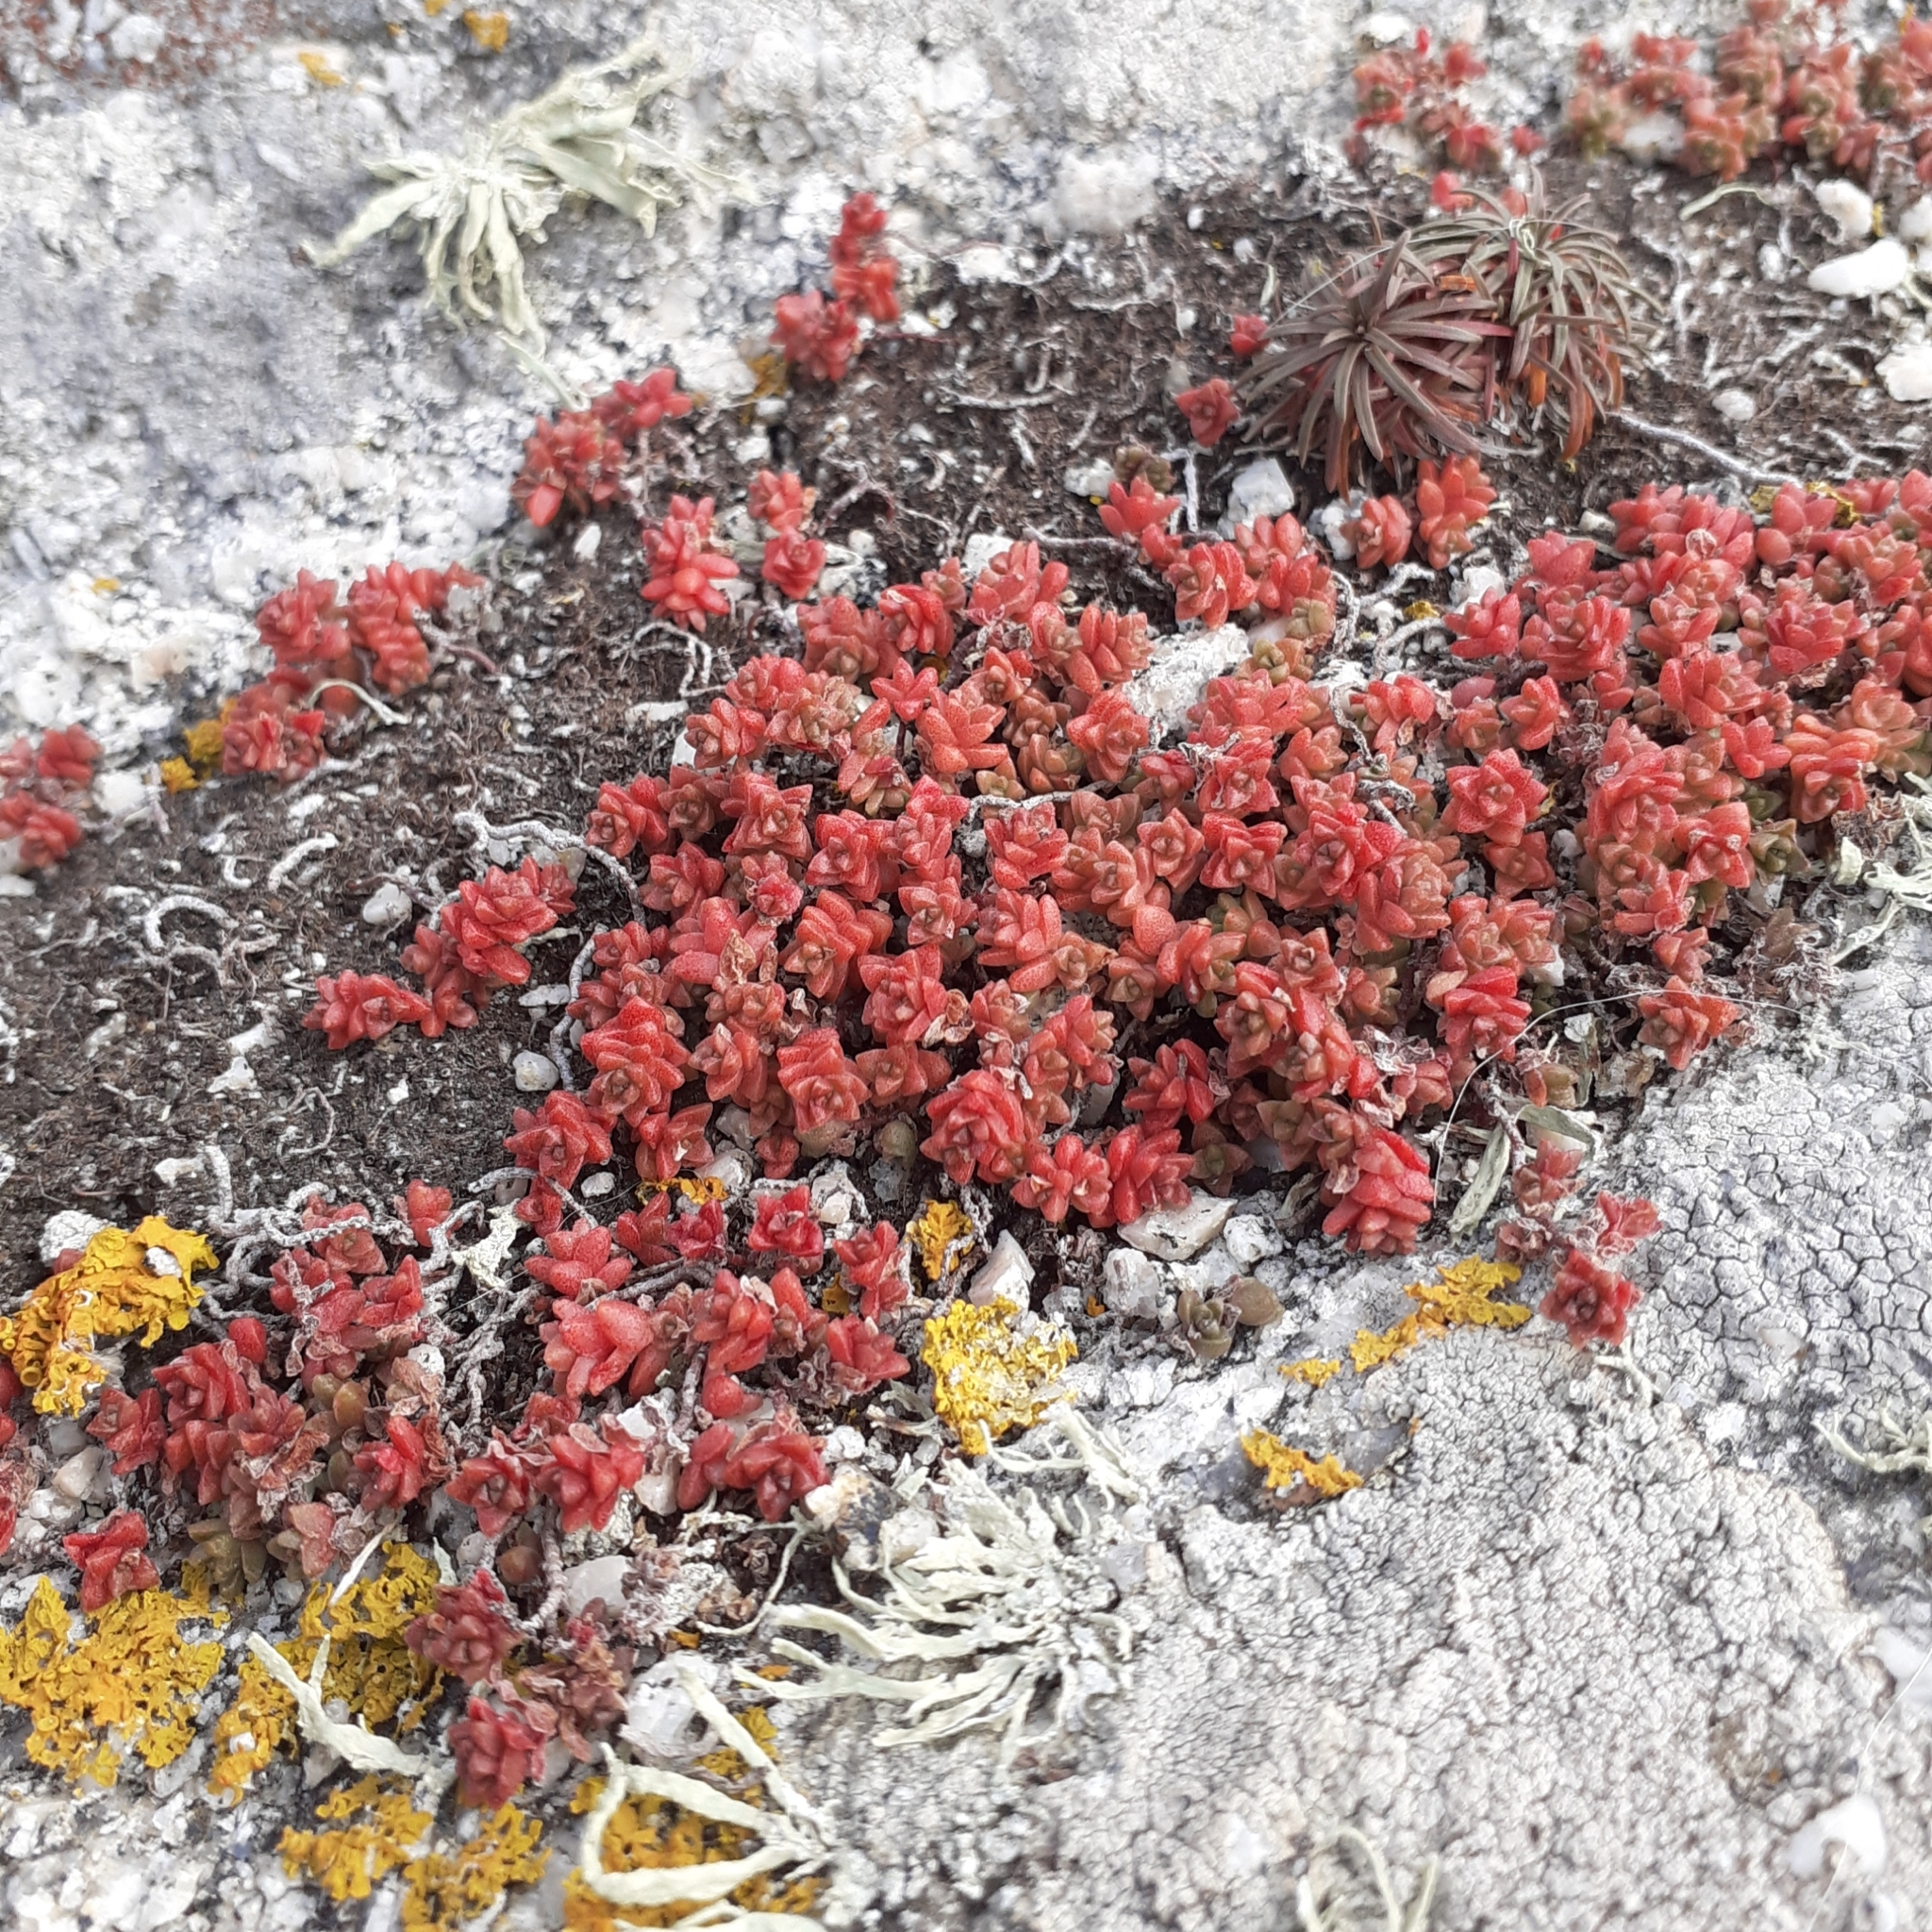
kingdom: Plantae
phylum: Tracheophyta
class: Magnoliopsida
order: Saxifragales
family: Crassulaceae
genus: Sedum
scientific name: Sedum anglicum
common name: English stonecrop
